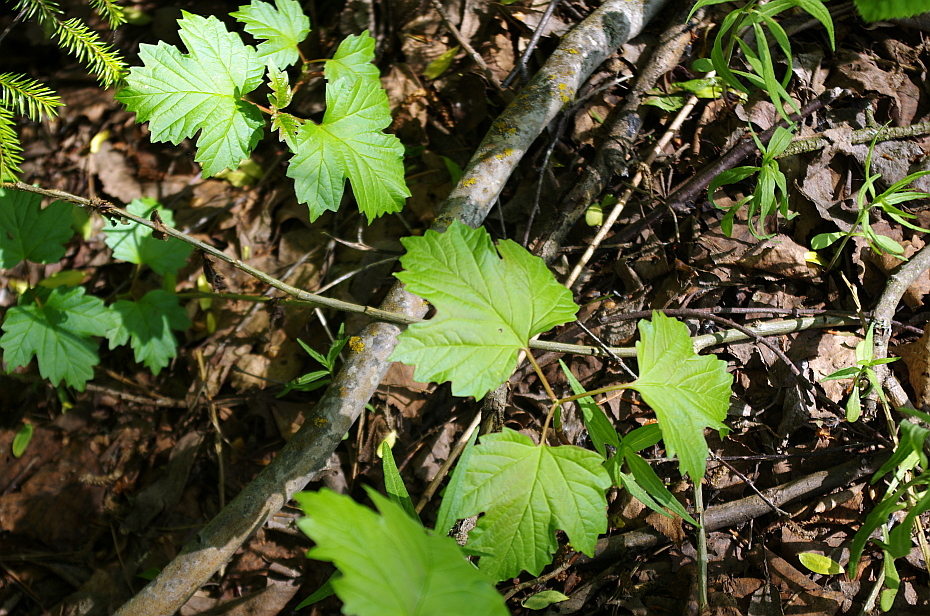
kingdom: Plantae
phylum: Tracheophyta
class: Magnoliopsida
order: Dipsacales
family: Viburnaceae
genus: Viburnum
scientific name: Viburnum opulus
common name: Guelder-rose
